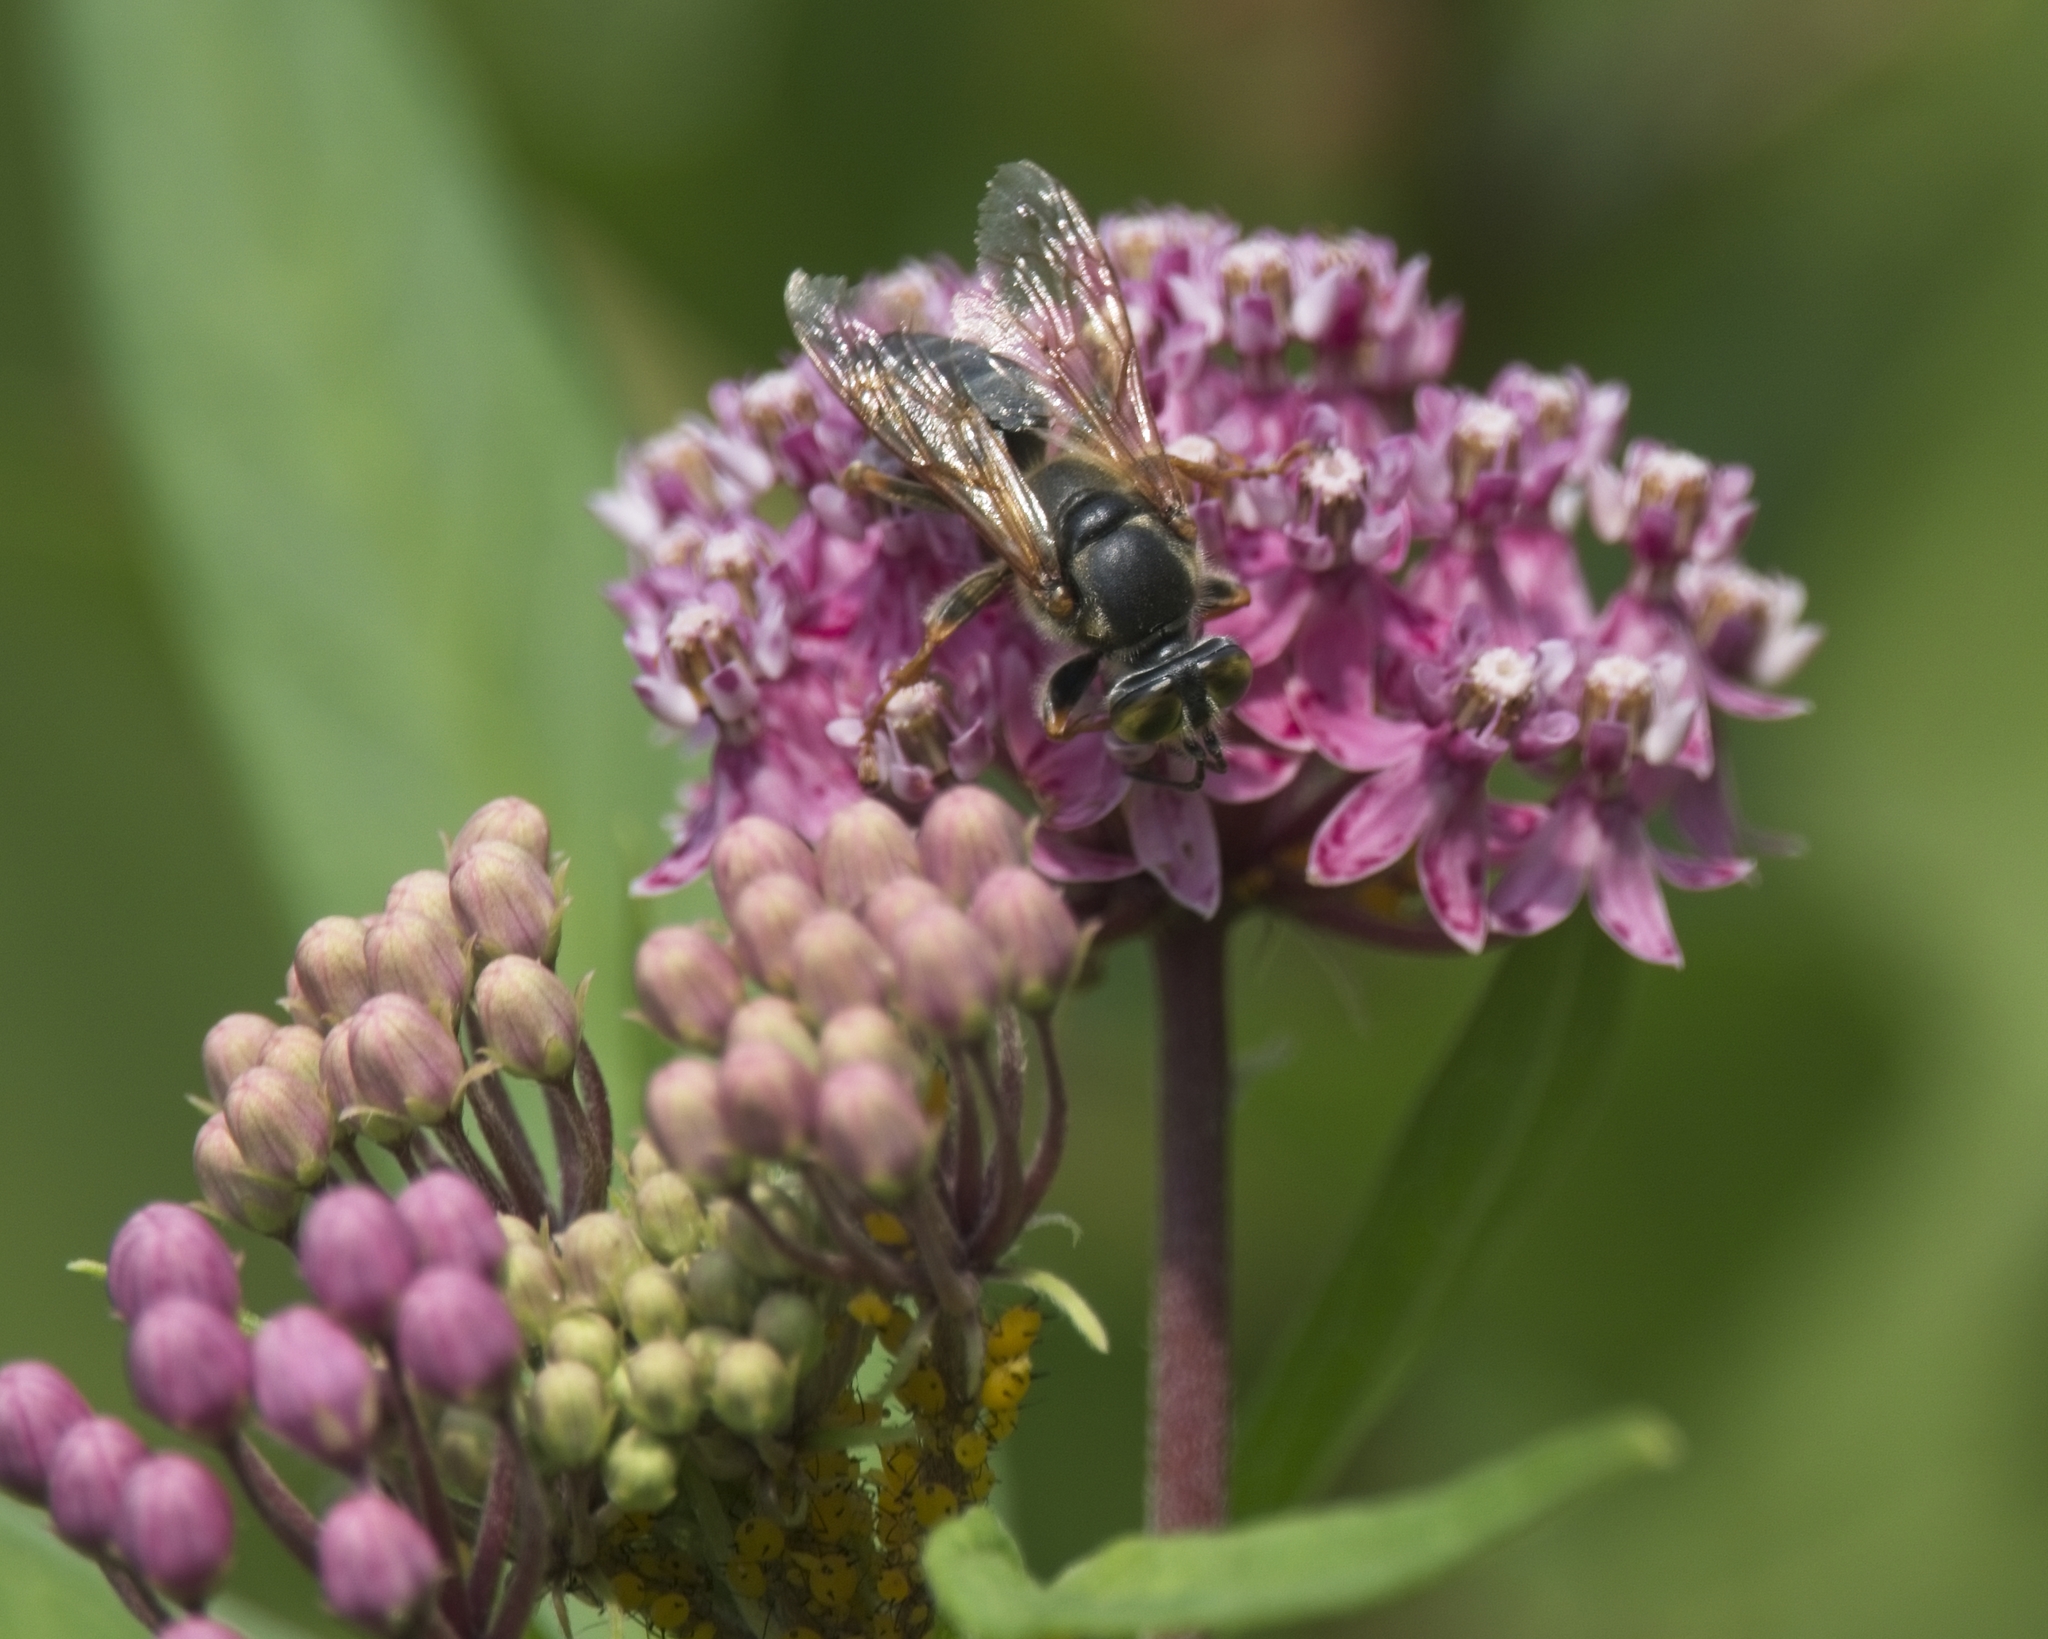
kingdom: Plantae
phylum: Tracheophyta
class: Magnoliopsida
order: Gentianales
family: Apocynaceae
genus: Asclepias
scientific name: Asclepias incarnata
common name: Swamp milkweed
